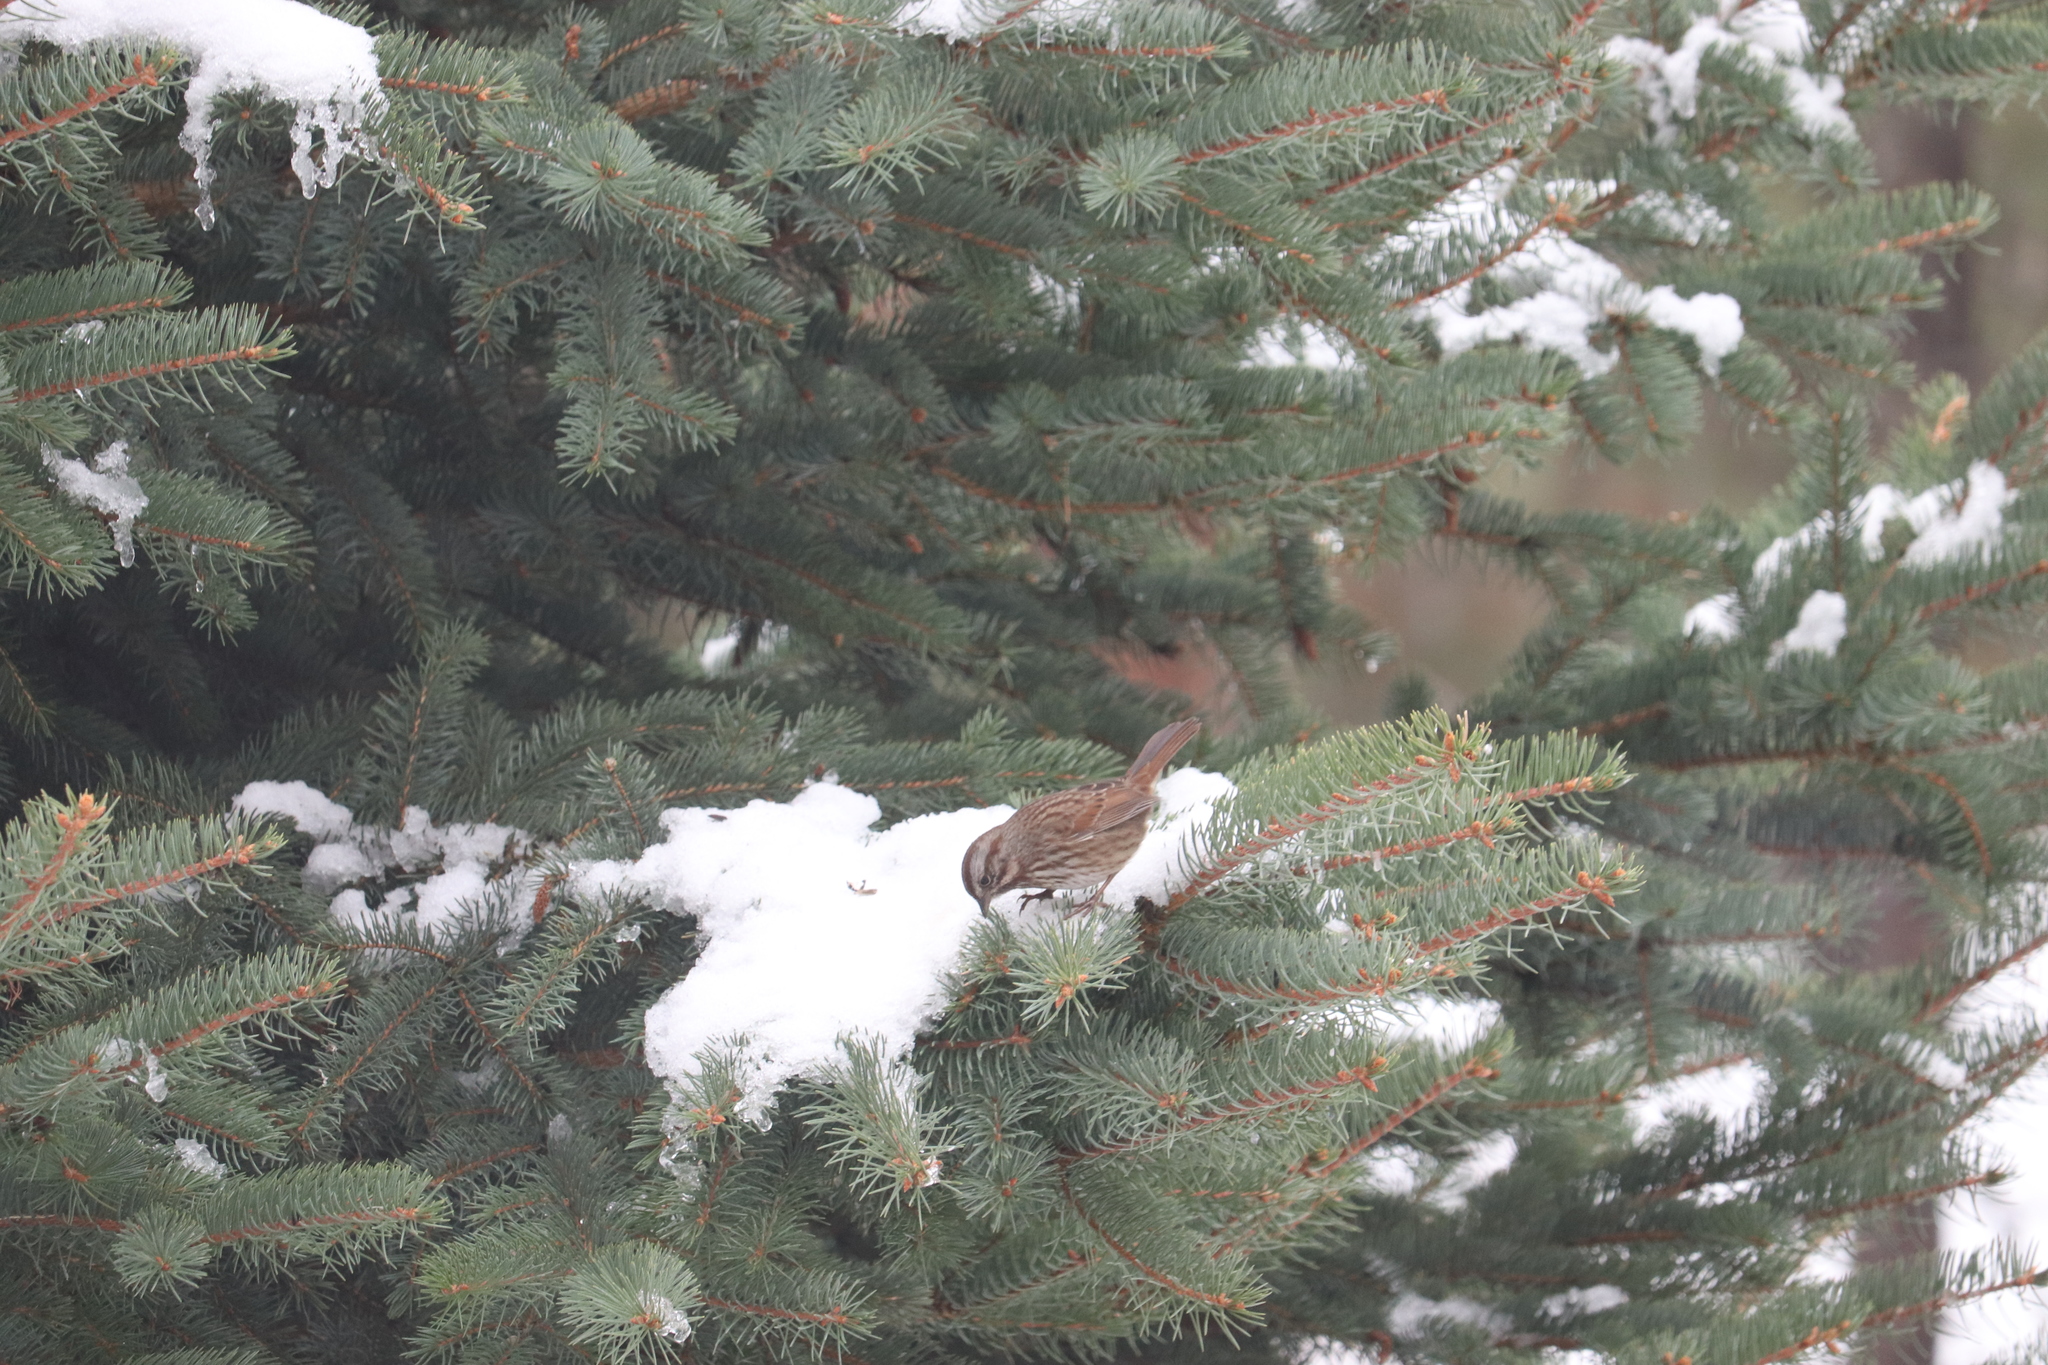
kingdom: Animalia
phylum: Chordata
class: Aves
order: Passeriformes
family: Passerellidae
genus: Melospiza
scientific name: Melospiza melodia
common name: Song sparrow
